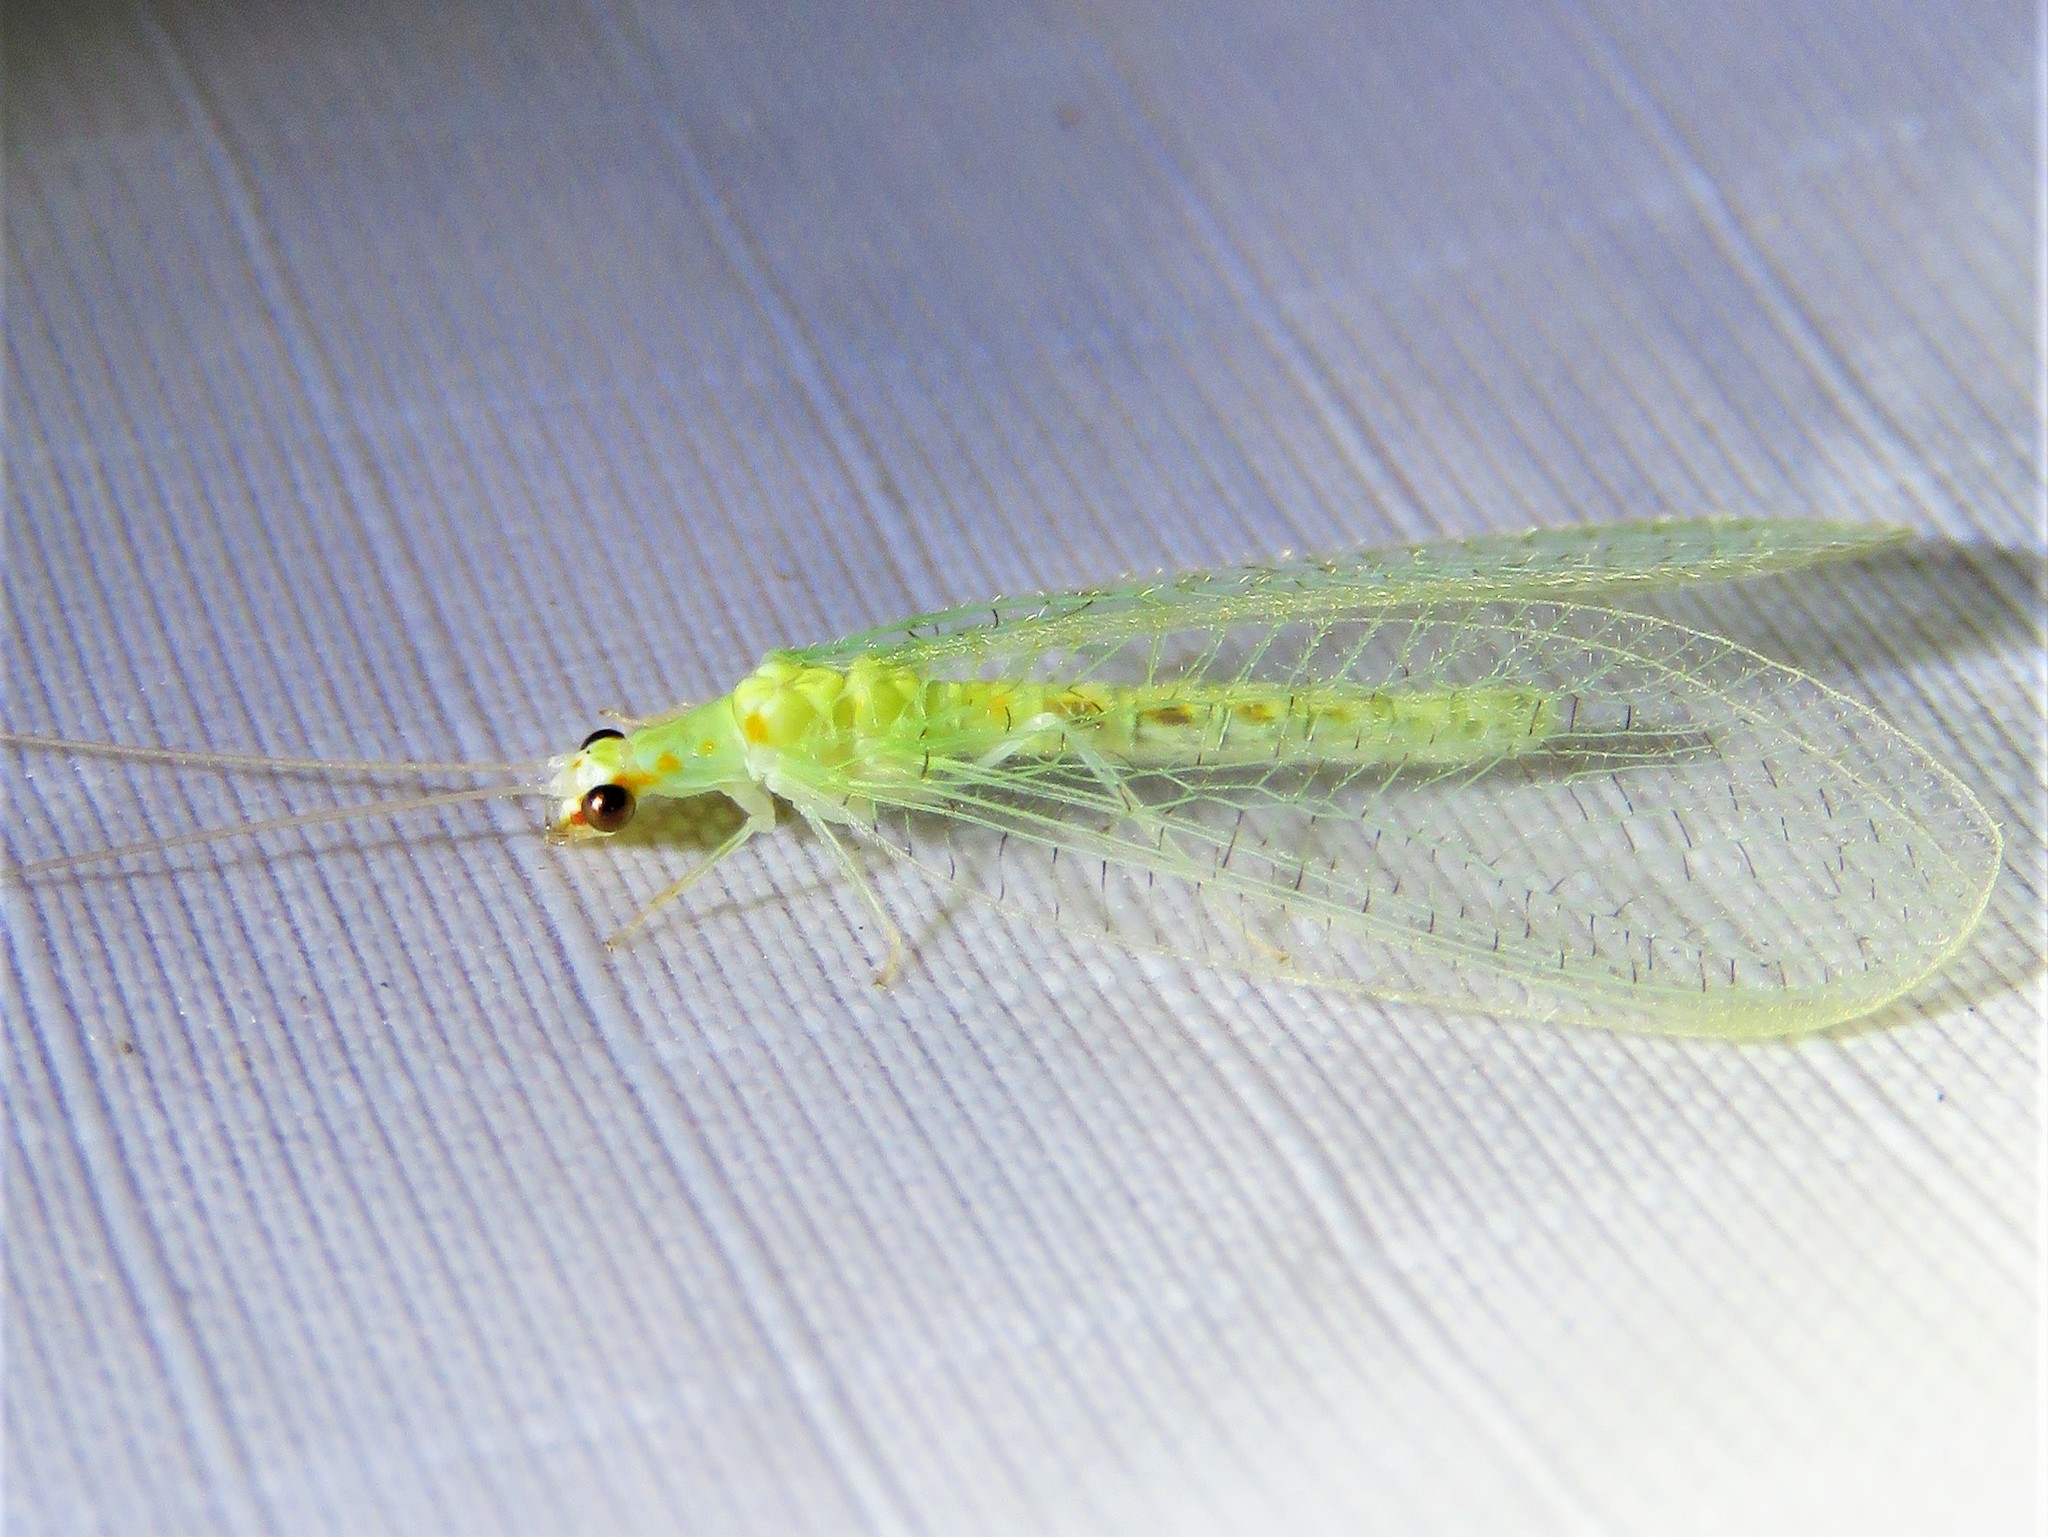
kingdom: Animalia
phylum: Arthropoda
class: Insecta
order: Neuroptera
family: Chrysopidae
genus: Chrysopa
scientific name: Chrysopa quadripunctata
